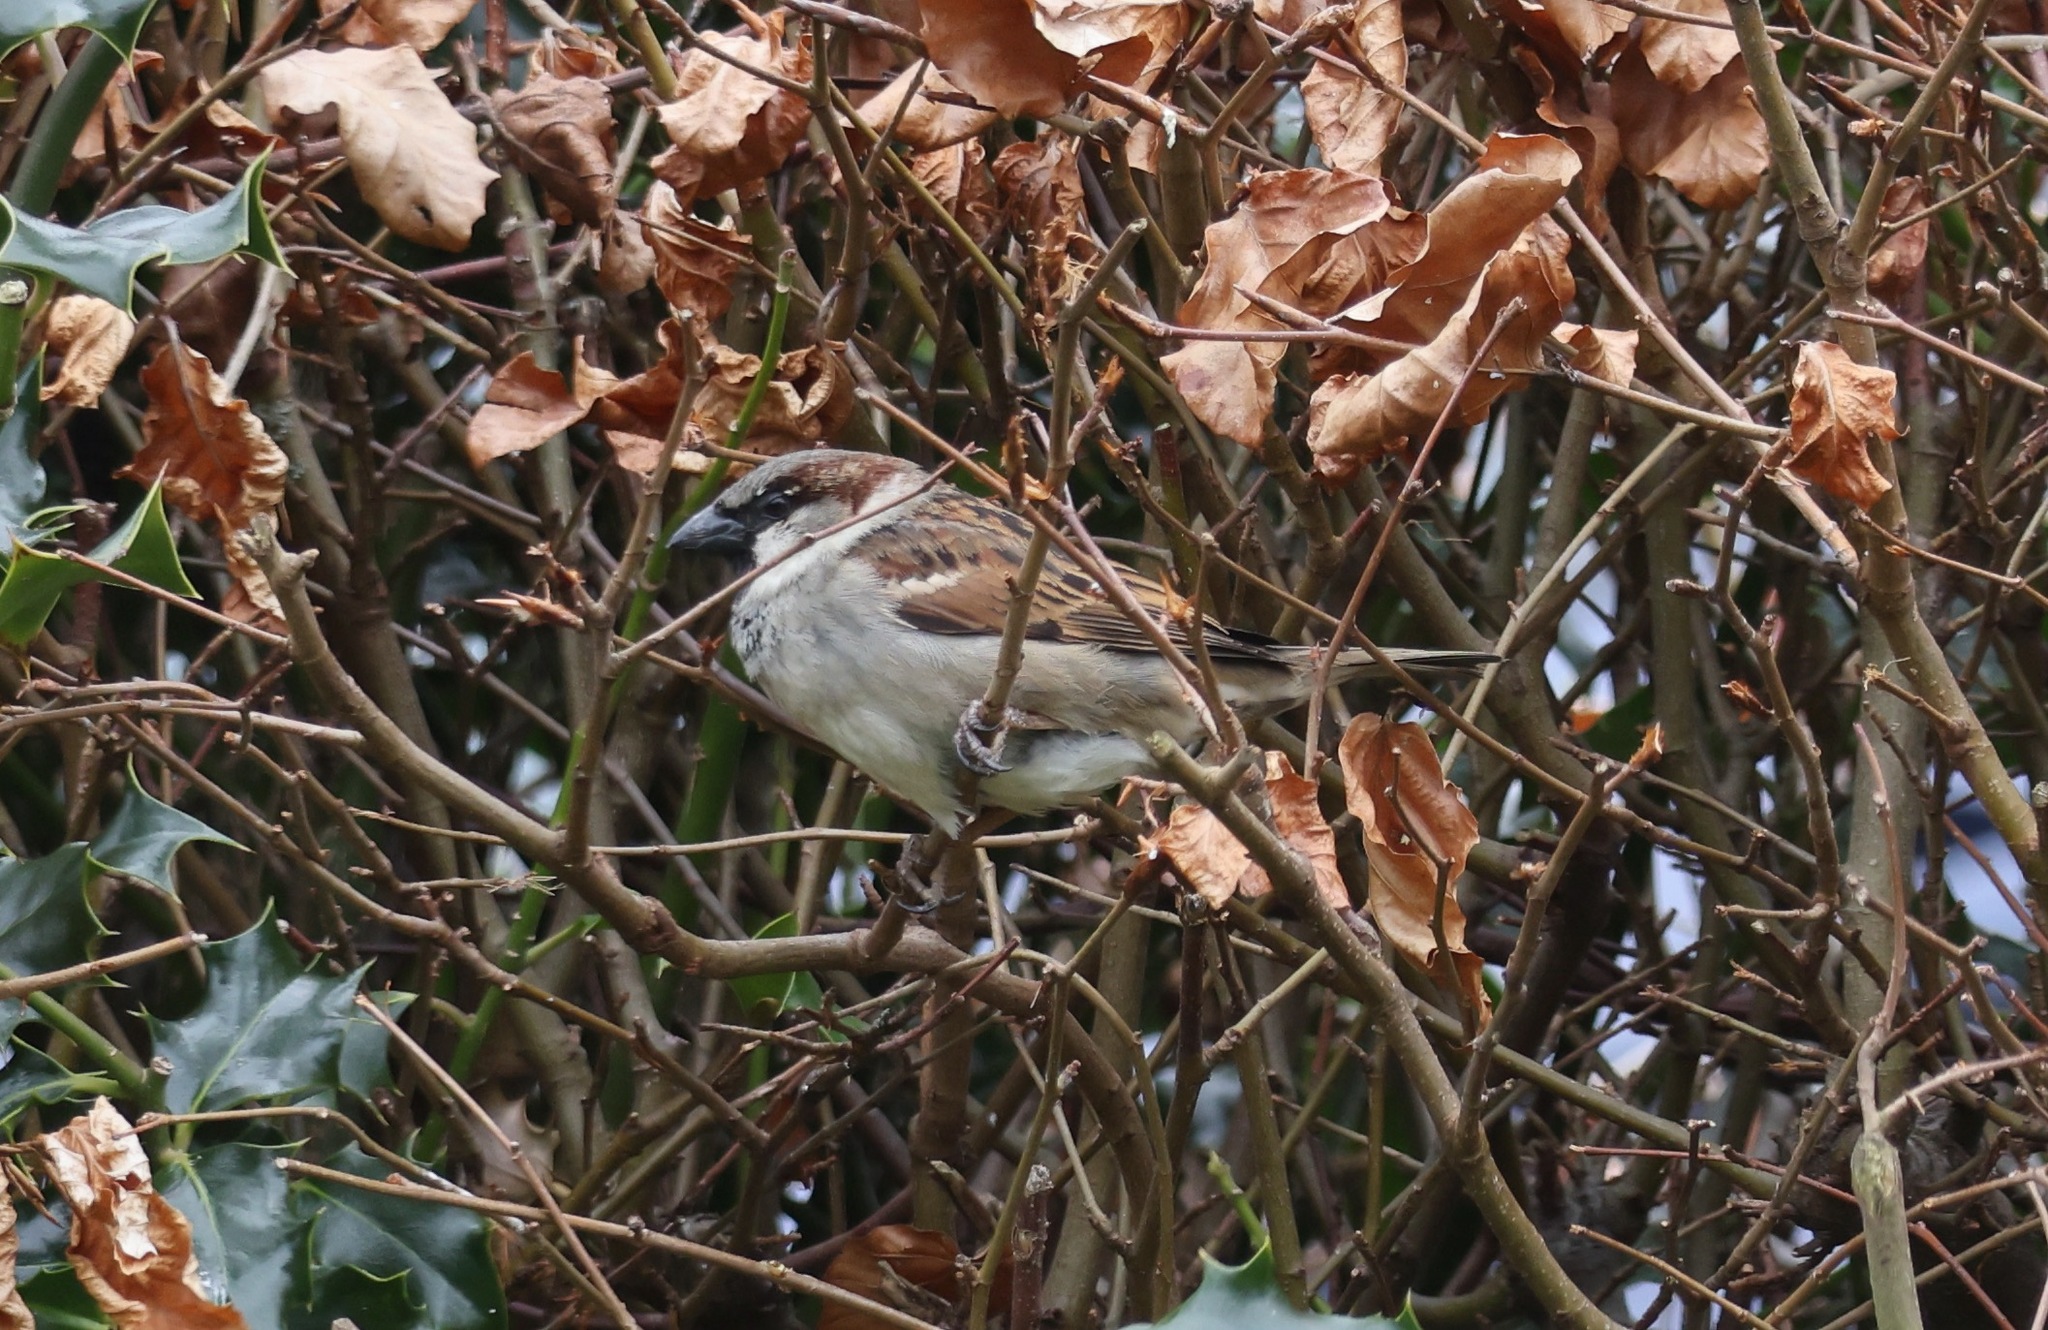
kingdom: Animalia
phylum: Chordata
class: Aves
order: Passeriformes
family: Passeridae
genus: Passer
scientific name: Passer domesticus
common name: House sparrow
